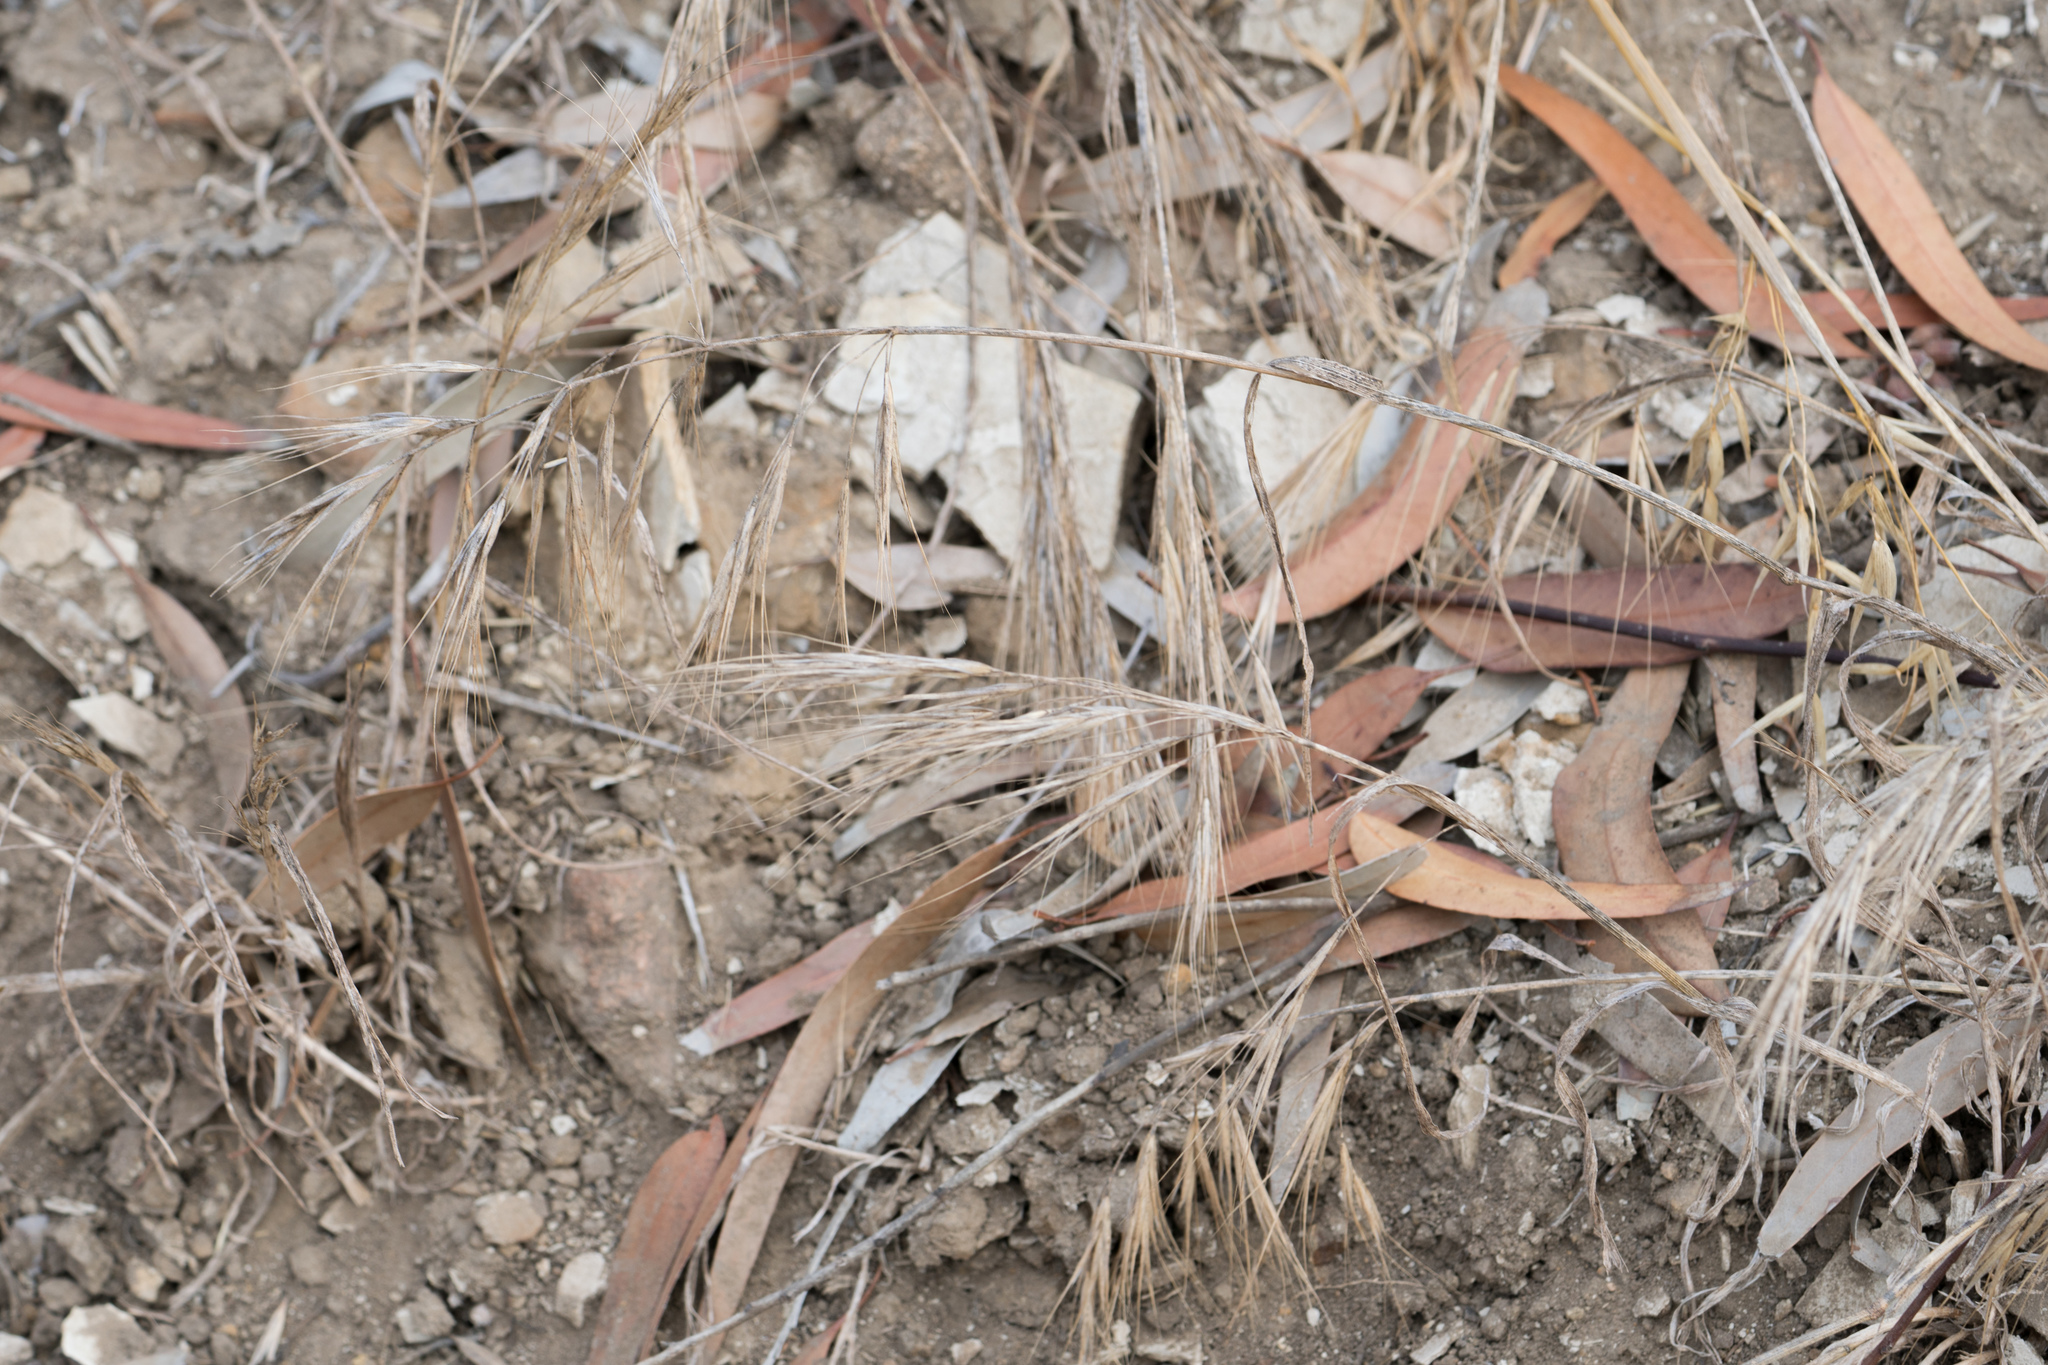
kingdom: Plantae
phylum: Tracheophyta
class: Liliopsida
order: Poales
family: Poaceae
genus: Bromus
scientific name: Bromus diandrus
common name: Ripgut brome
